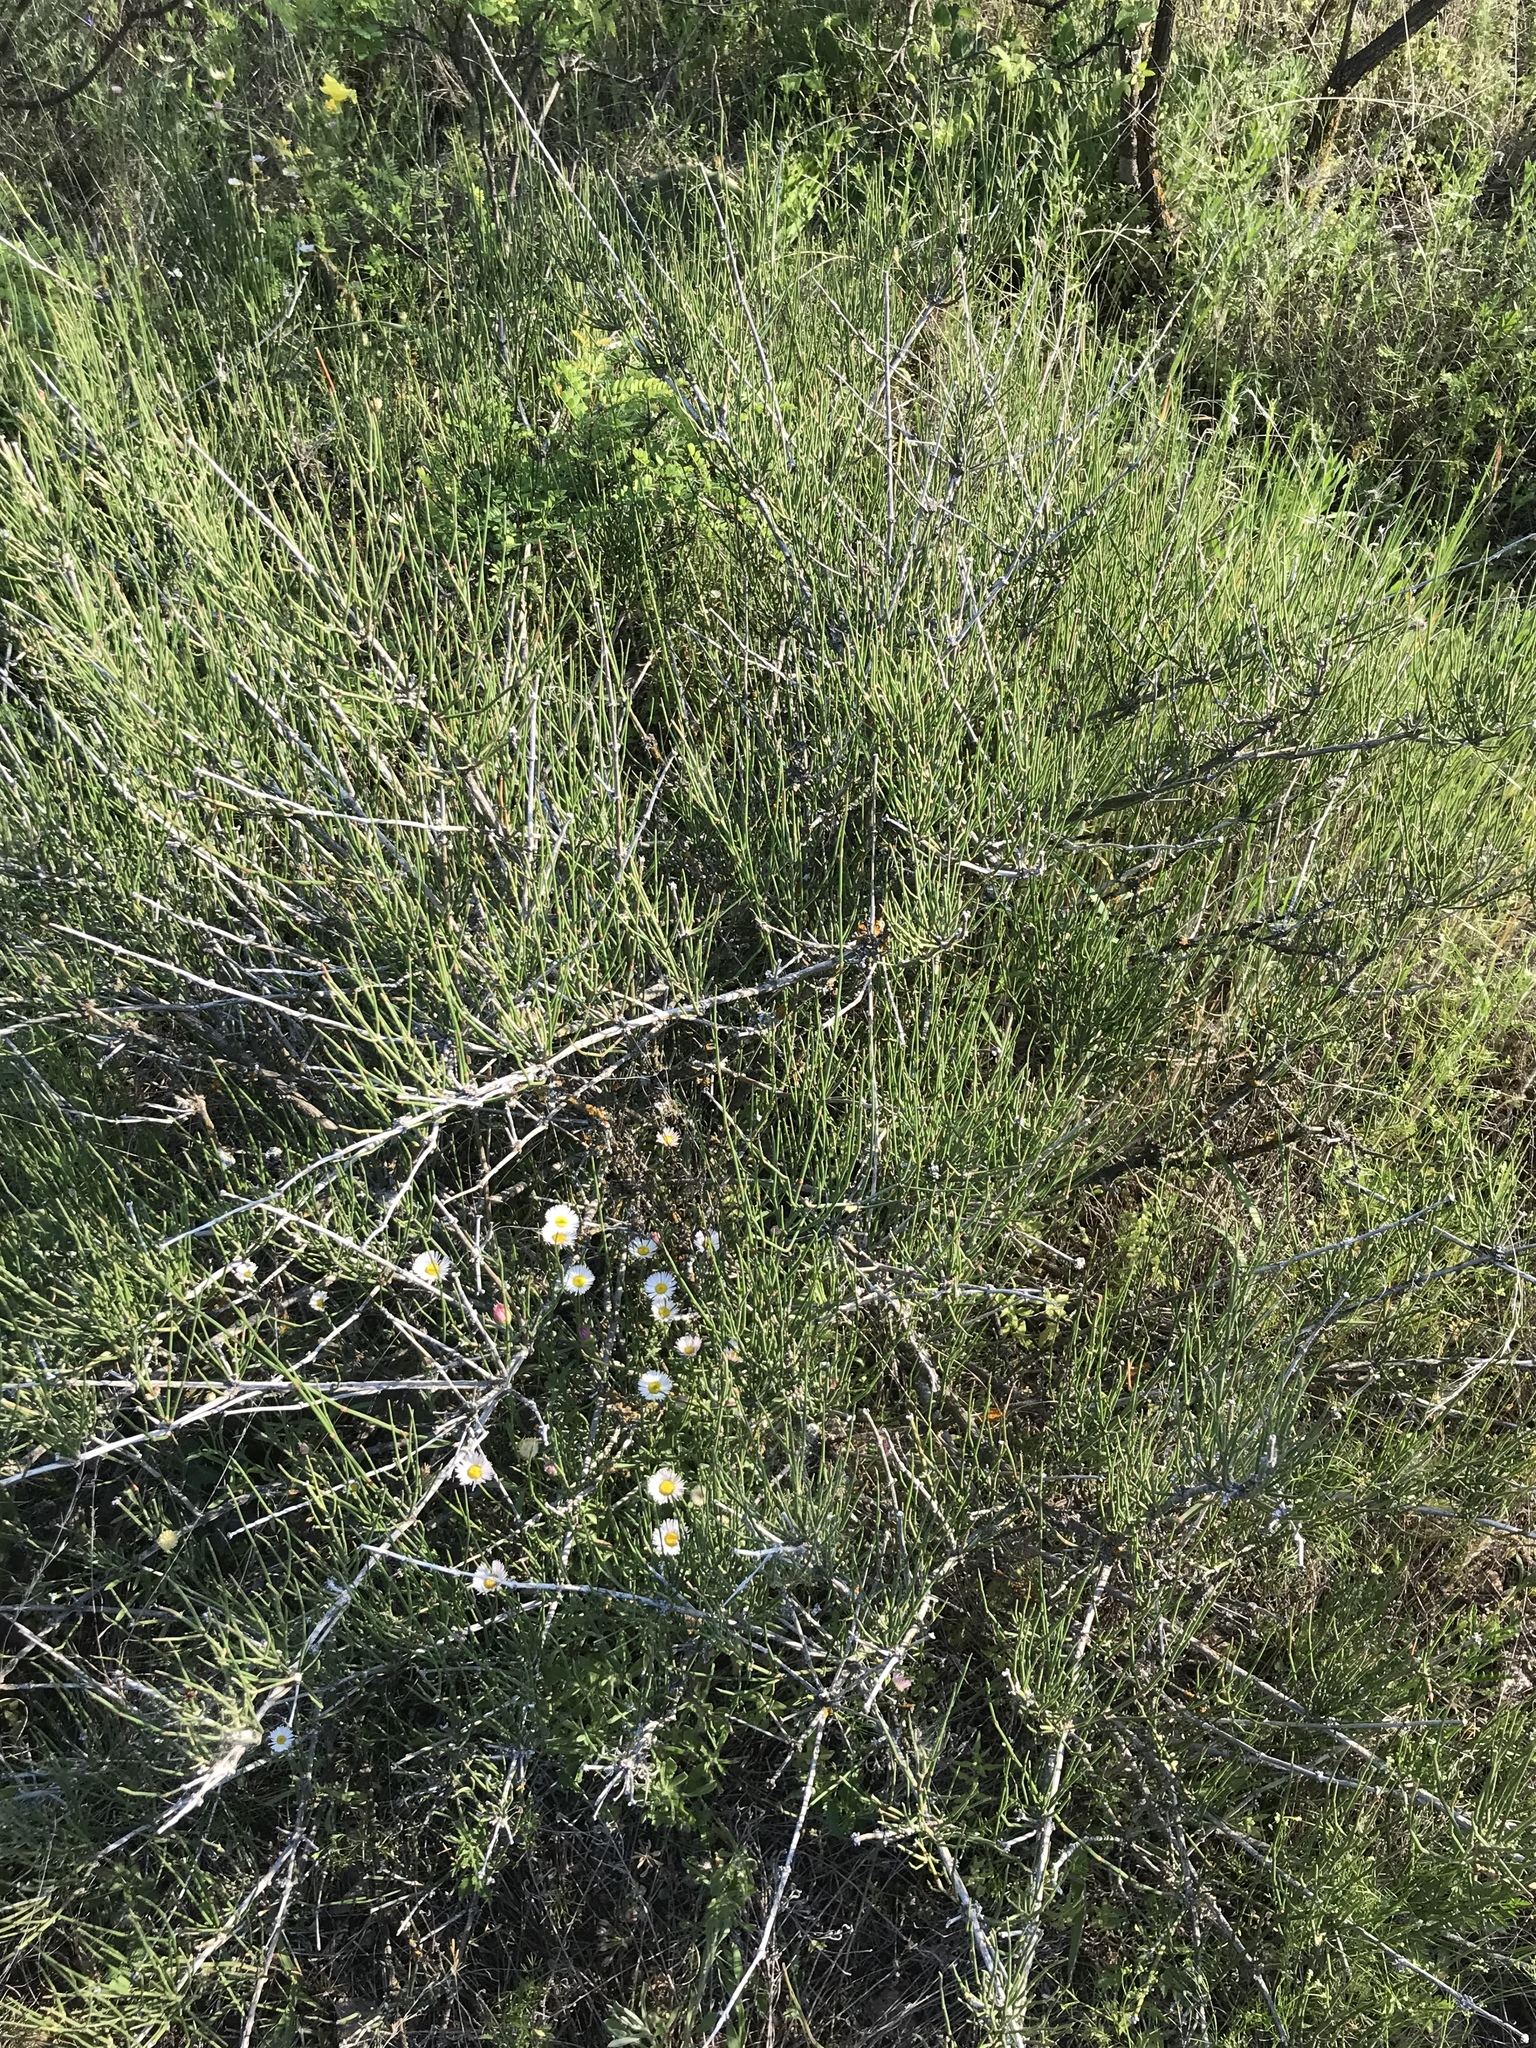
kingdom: Plantae
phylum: Tracheophyta
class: Gnetopsida
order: Ephedrales
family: Ephedraceae
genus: Ephedra
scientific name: Ephedra antisyphilitica
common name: Clipweed
